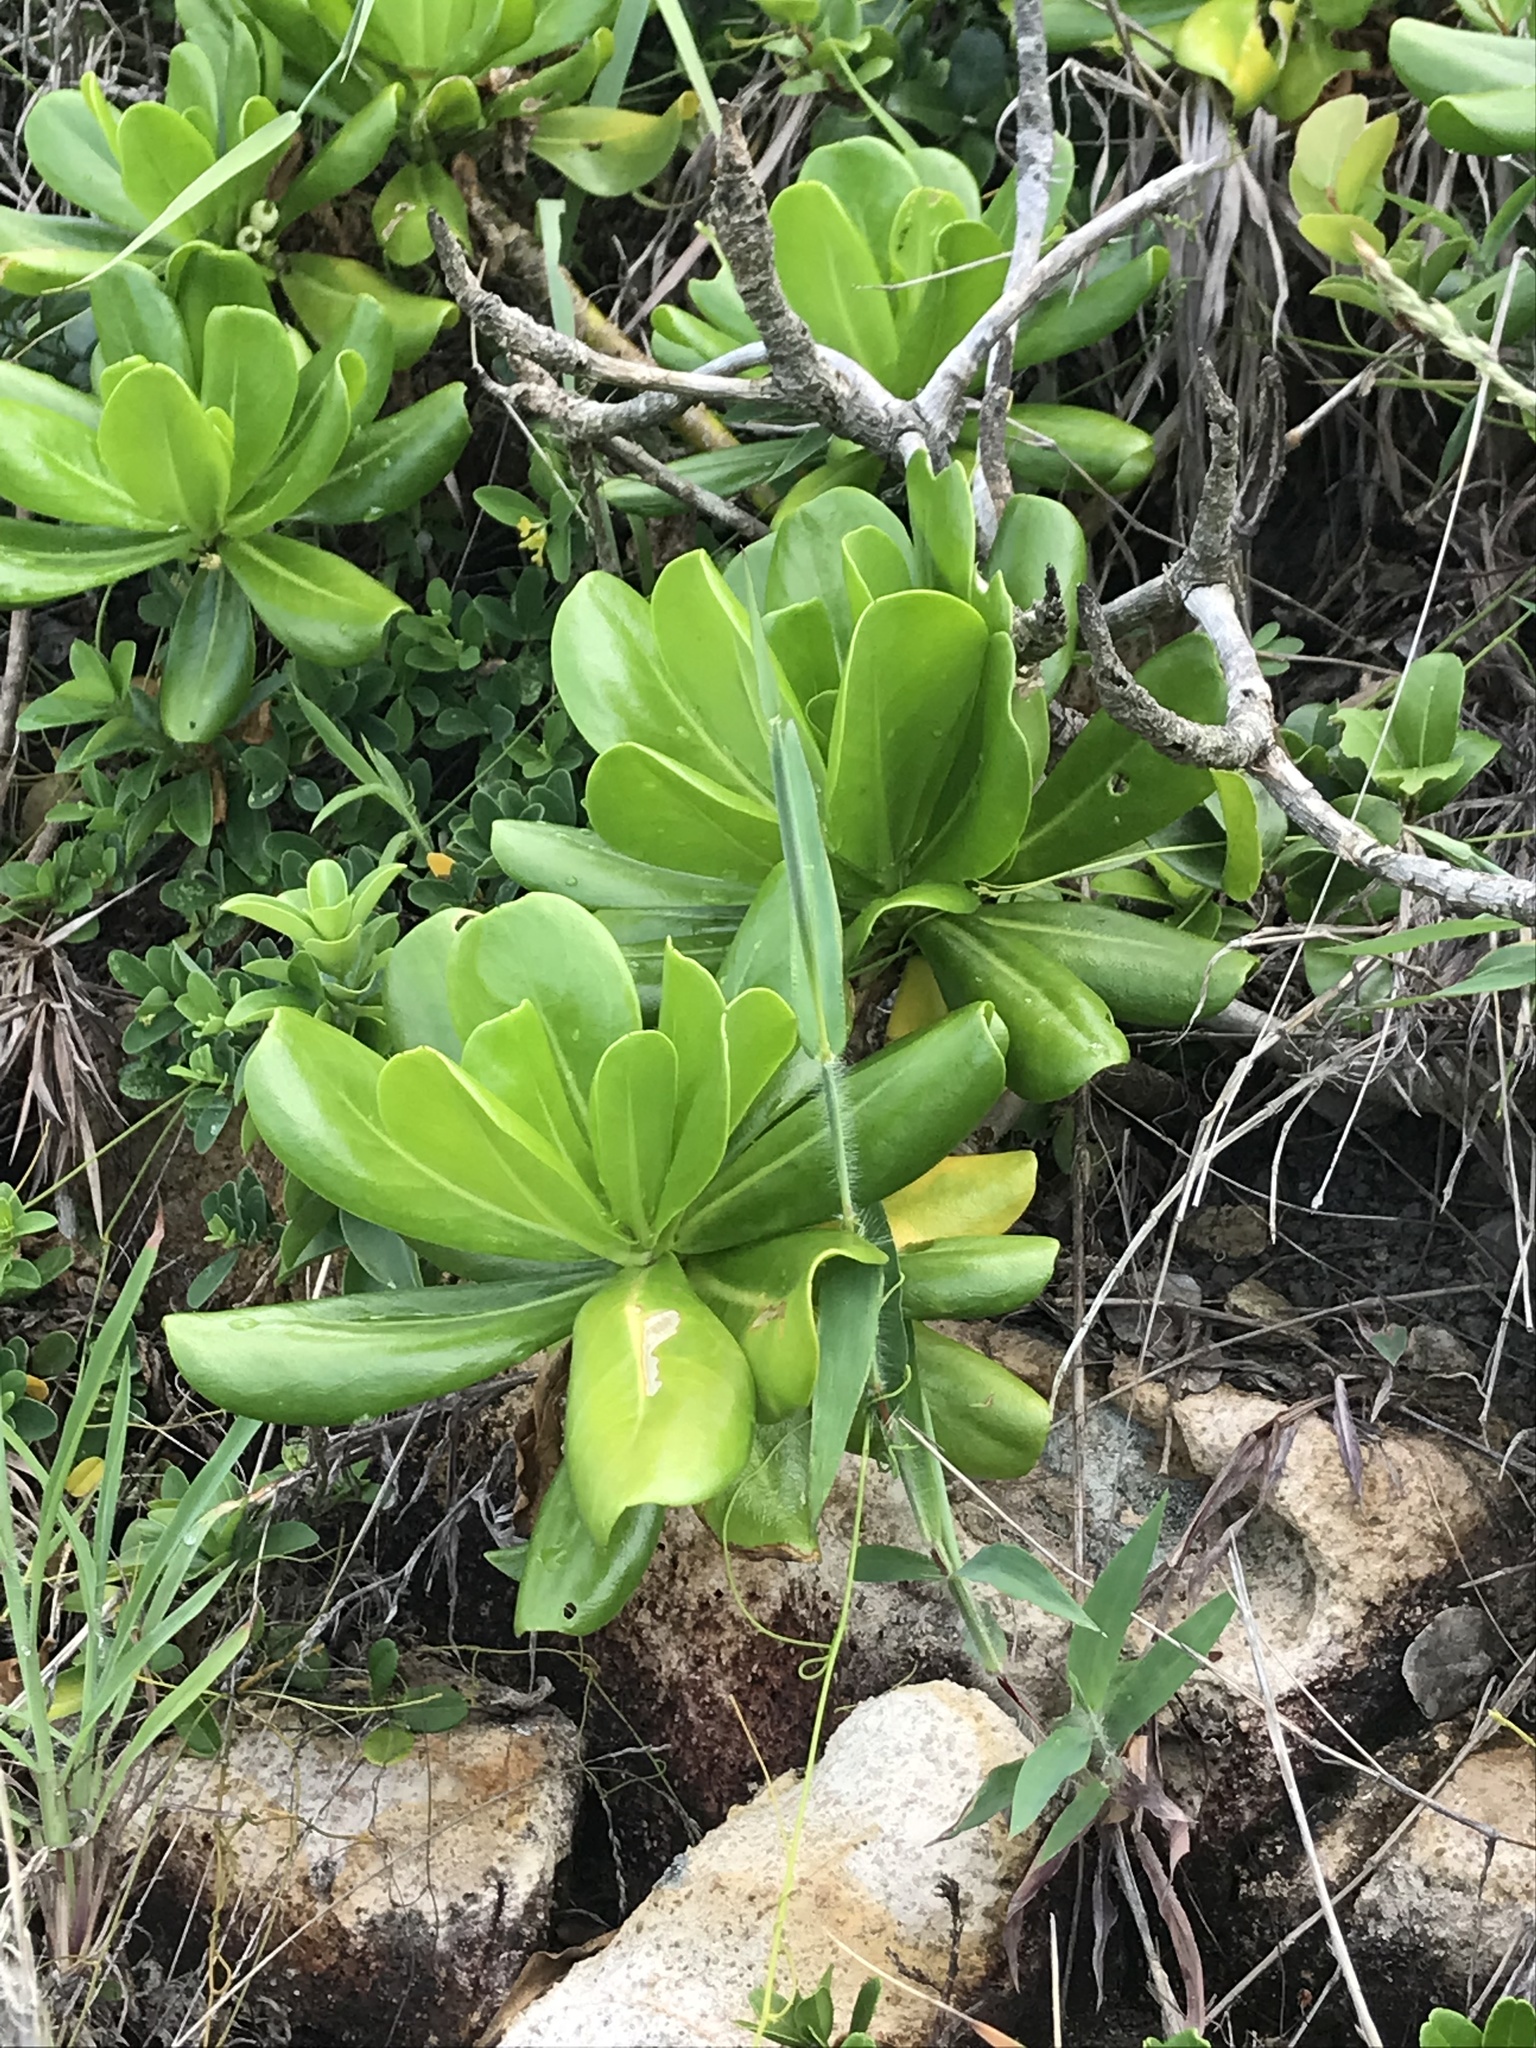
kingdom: Plantae
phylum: Tracheophyta
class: Magnoliopsida
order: Asterales
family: Goodeniaceae
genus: Scaevola
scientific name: Scaevola taccada
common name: Sea lettucetree
